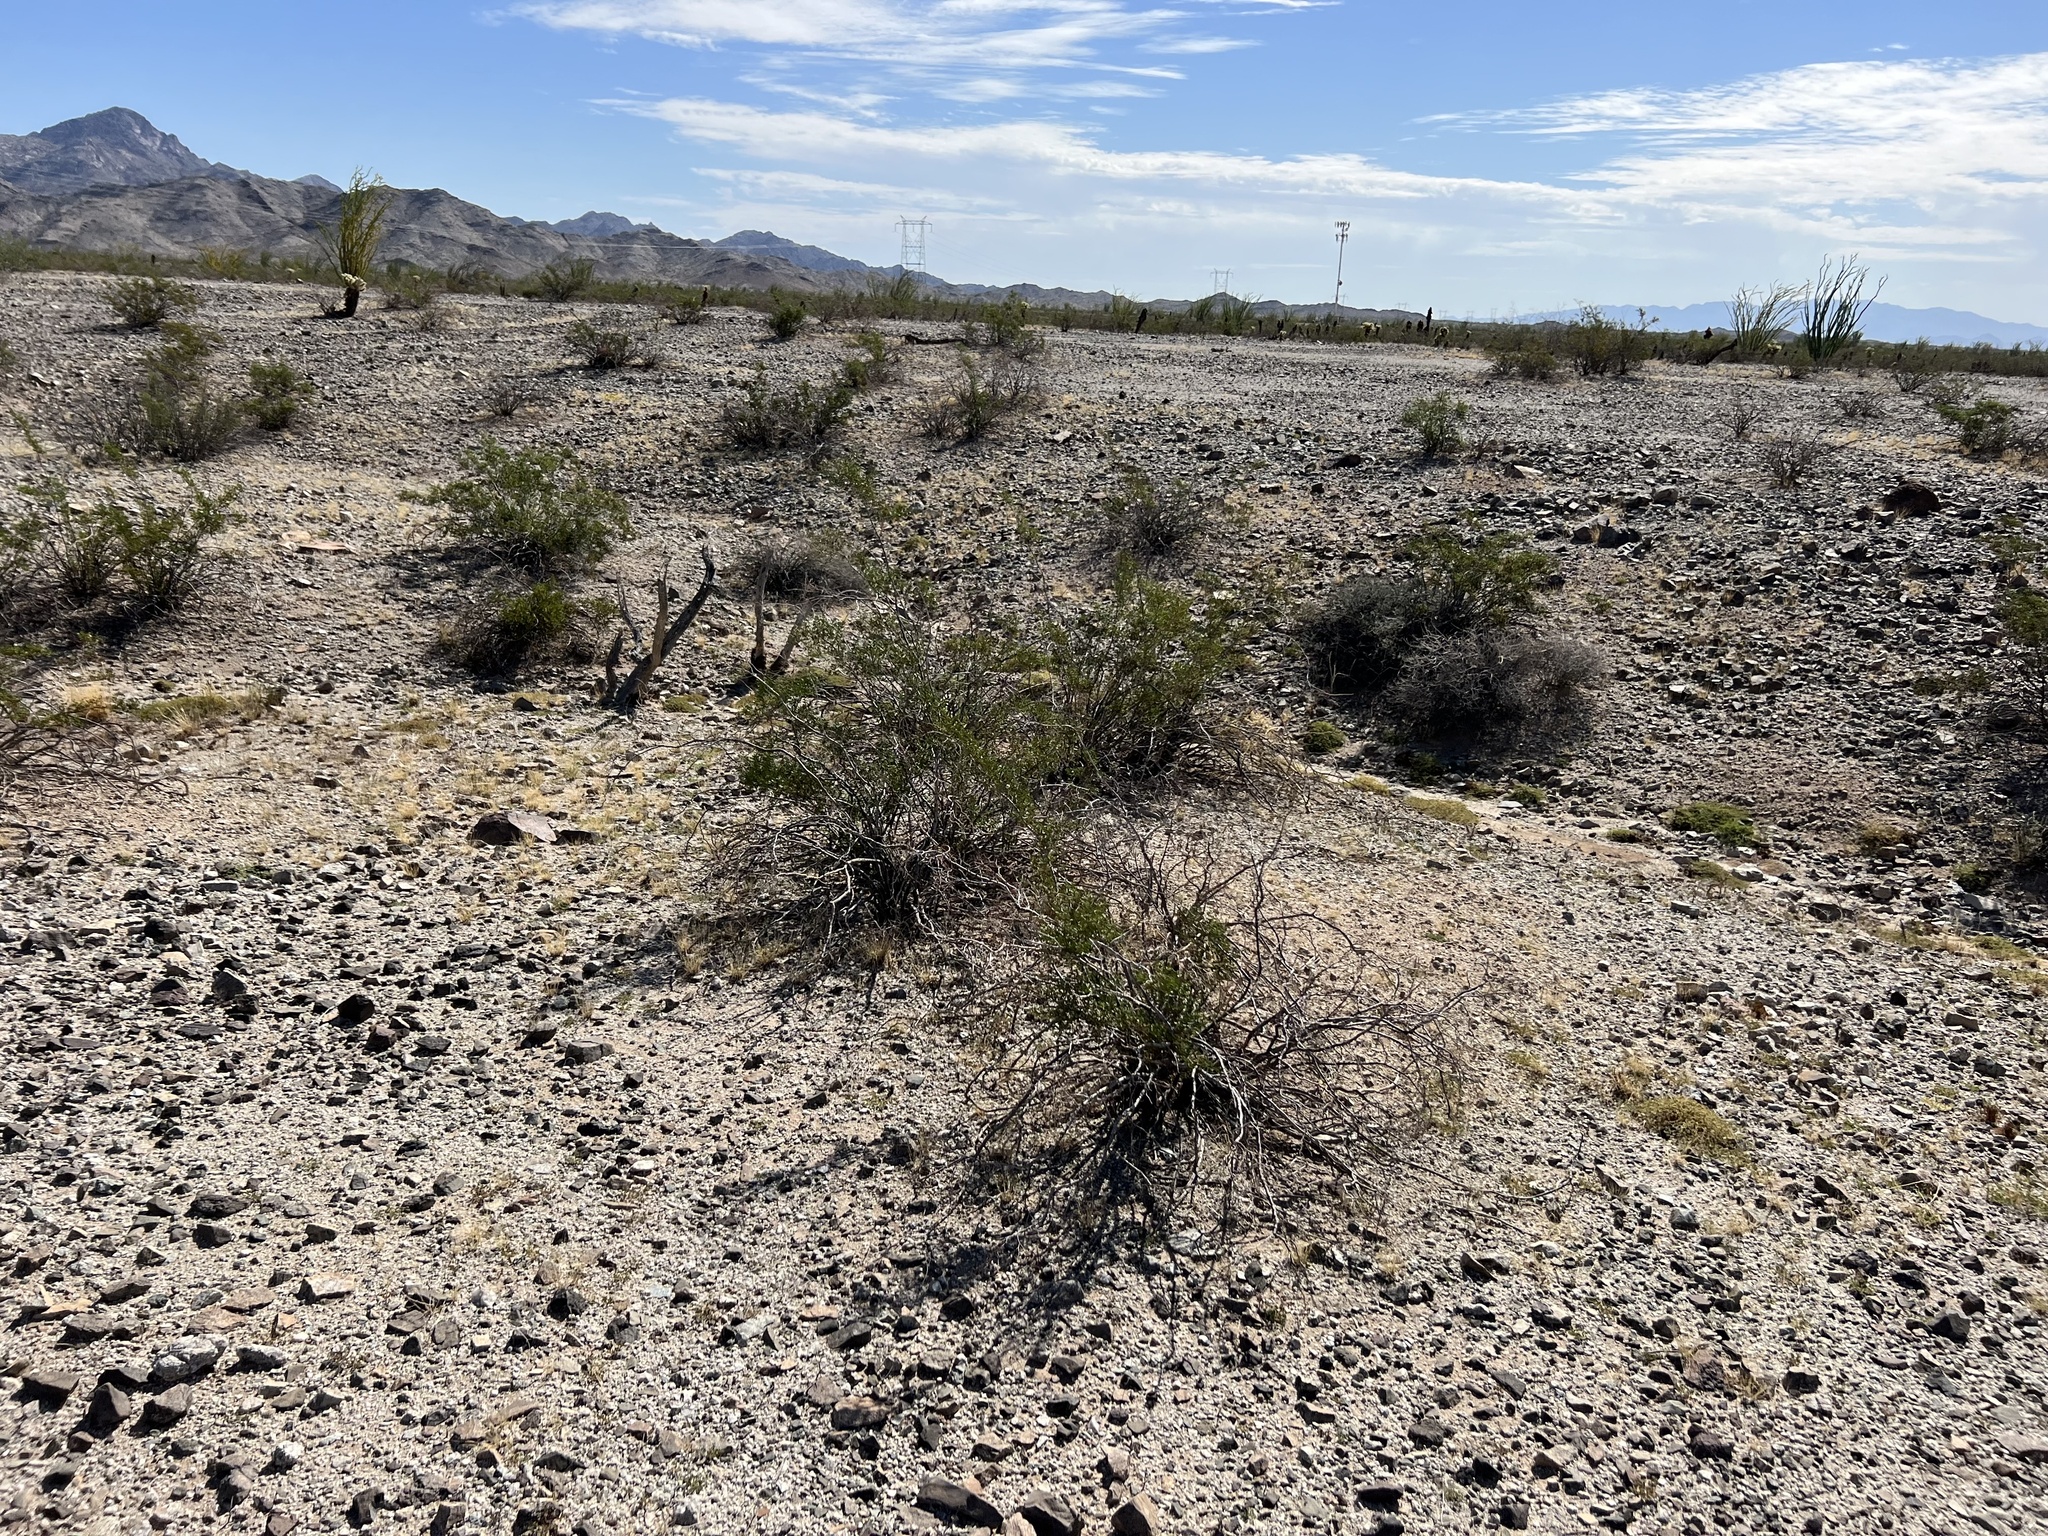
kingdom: Plantae
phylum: Tracheophyta
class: Magnoliopsida
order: Zygophyllales
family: Zygophyllaceae
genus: Larrea
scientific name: Larrea tridentata
